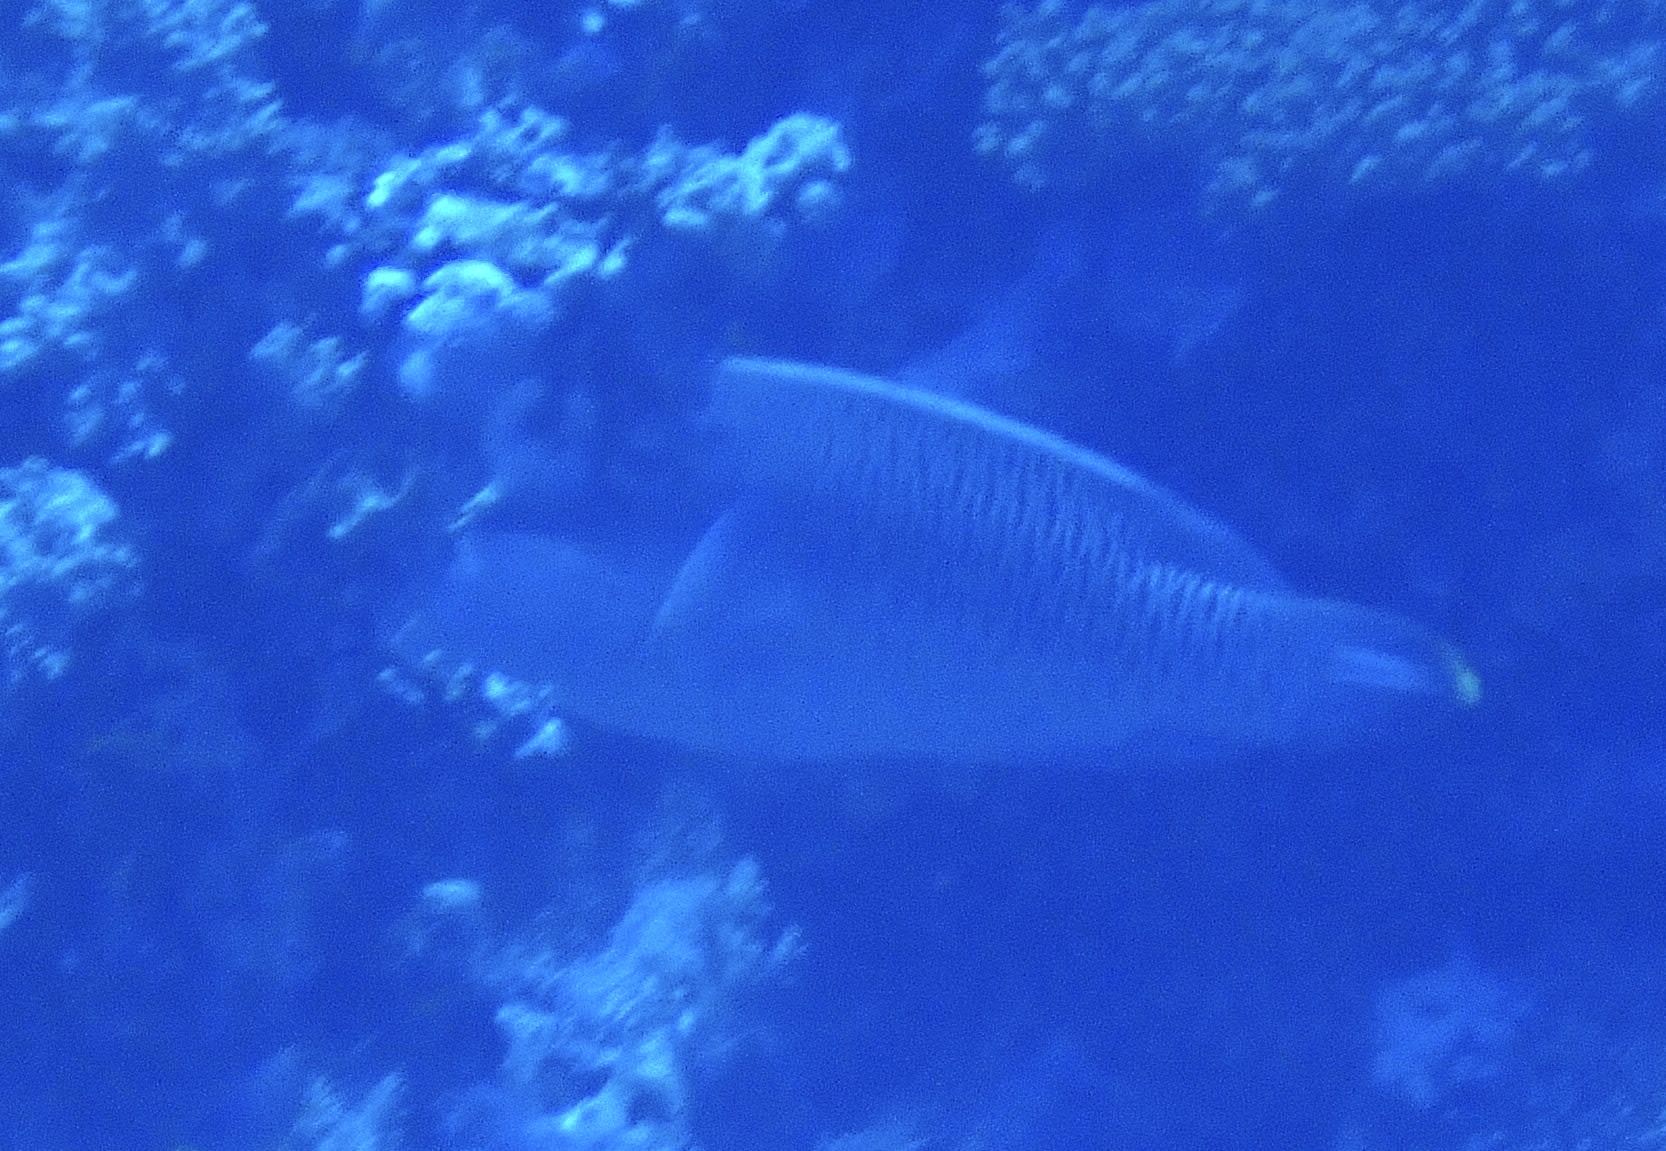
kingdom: Animalia
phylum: Chordata
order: Perciformes
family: Labridae
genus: Cheilinus
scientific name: Cheilinus undulatus
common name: Humphead wrasse
